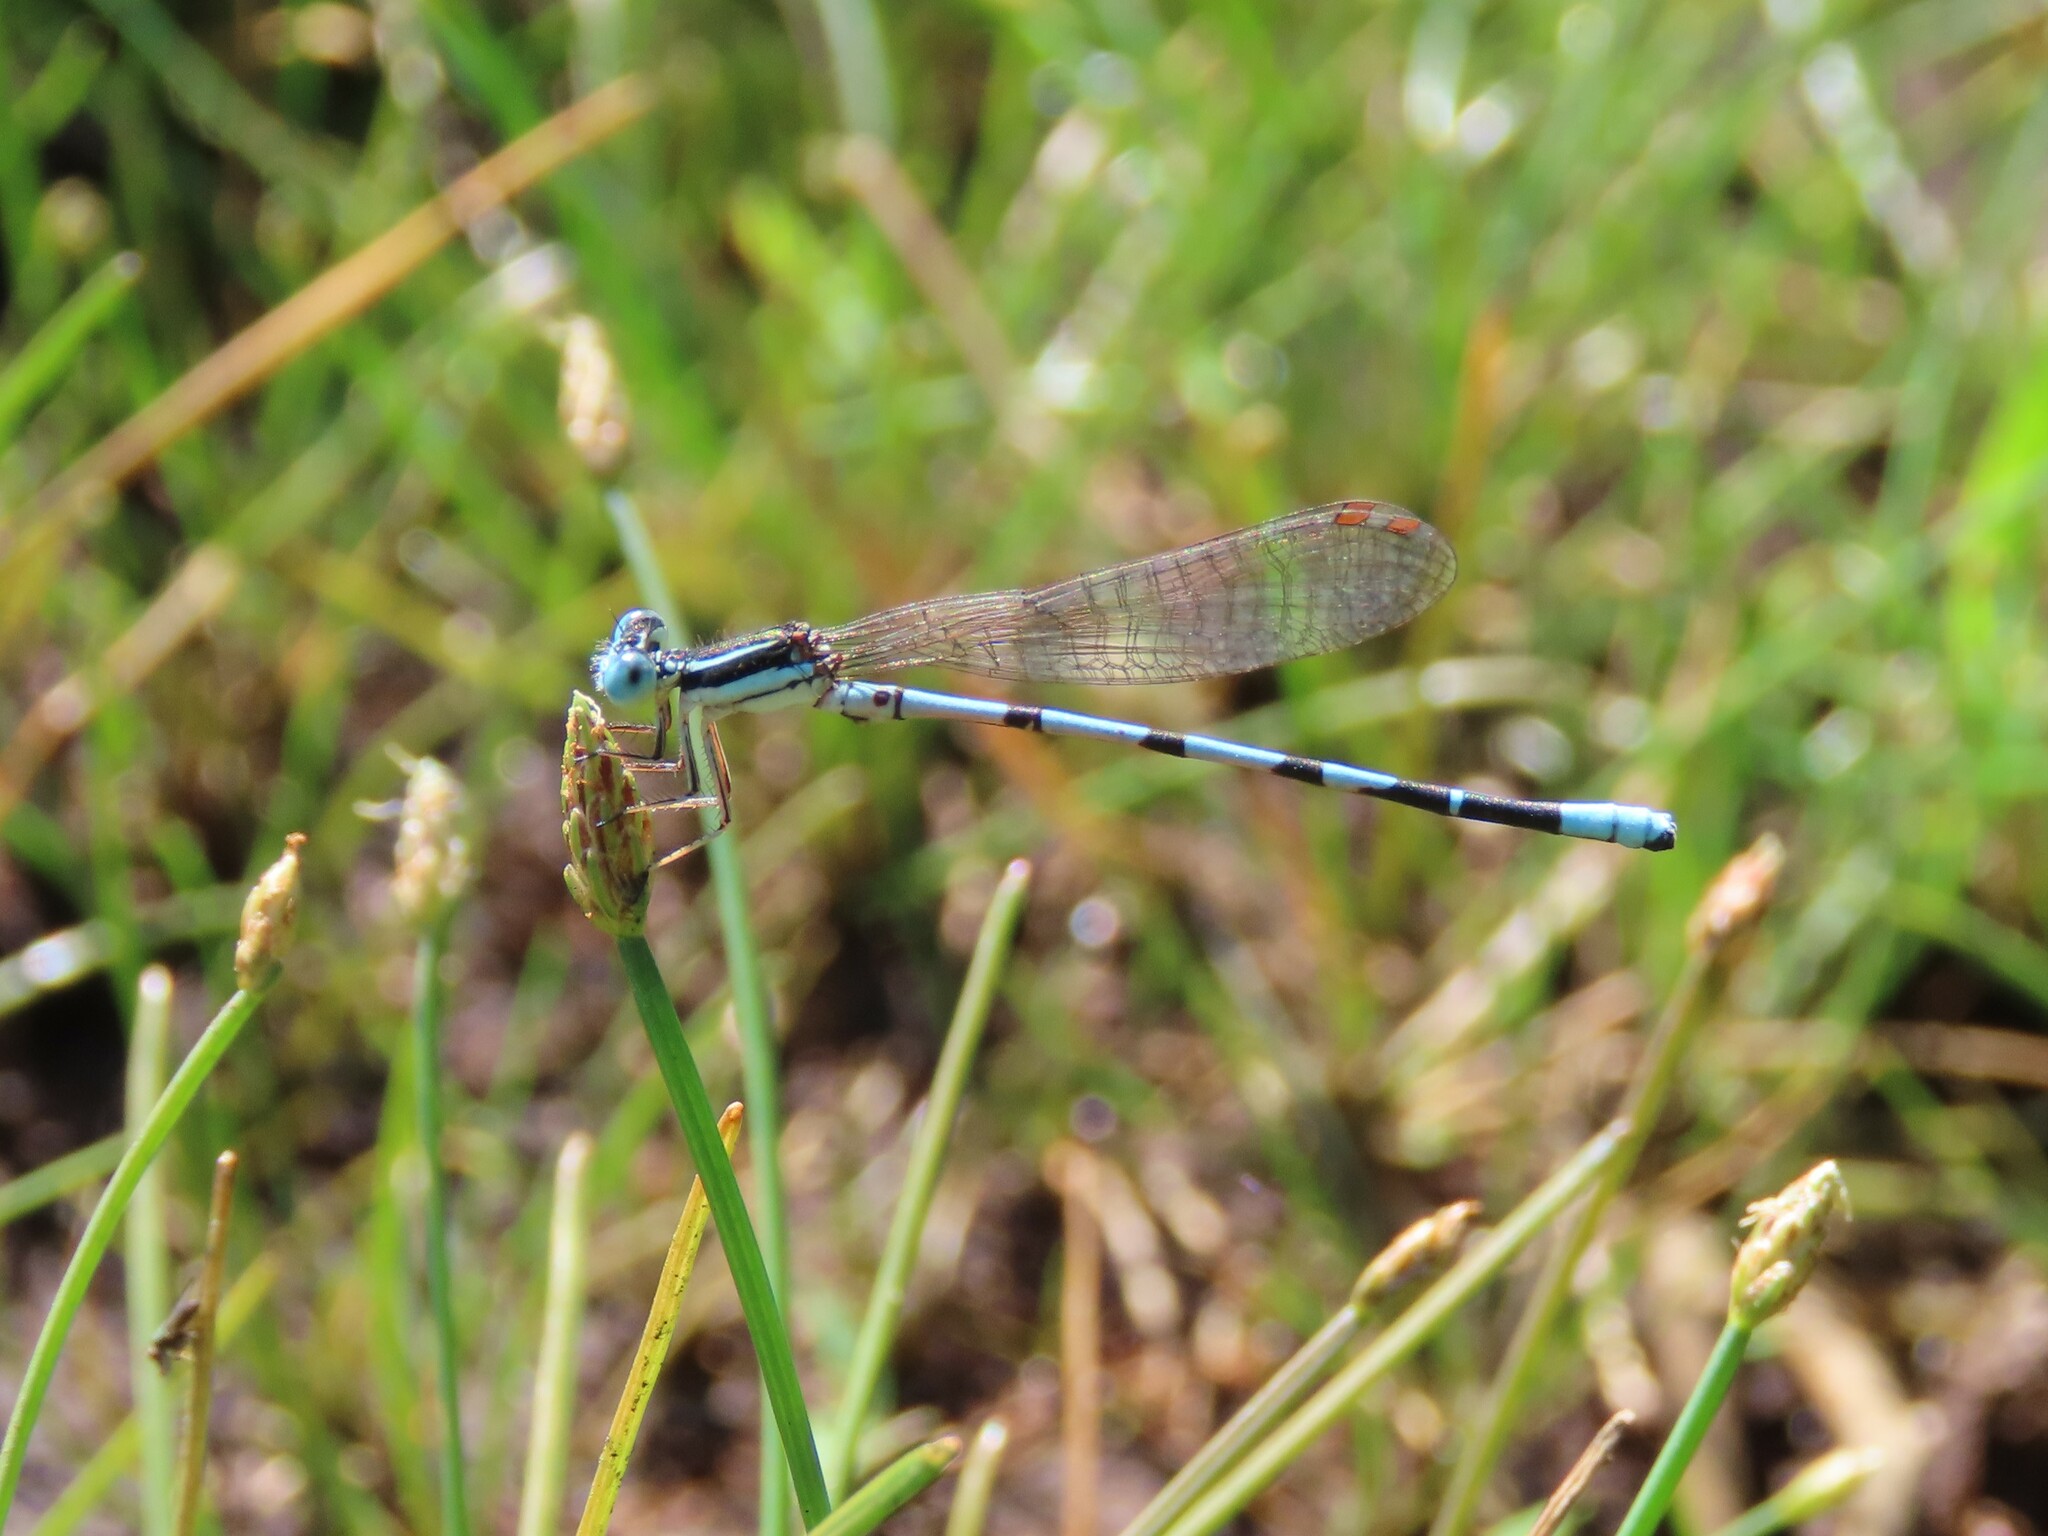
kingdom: Animalia
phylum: Arthropoda
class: Insecta
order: Odonata
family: Coenagrionidae
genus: Argia
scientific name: Argia bipunctulata
